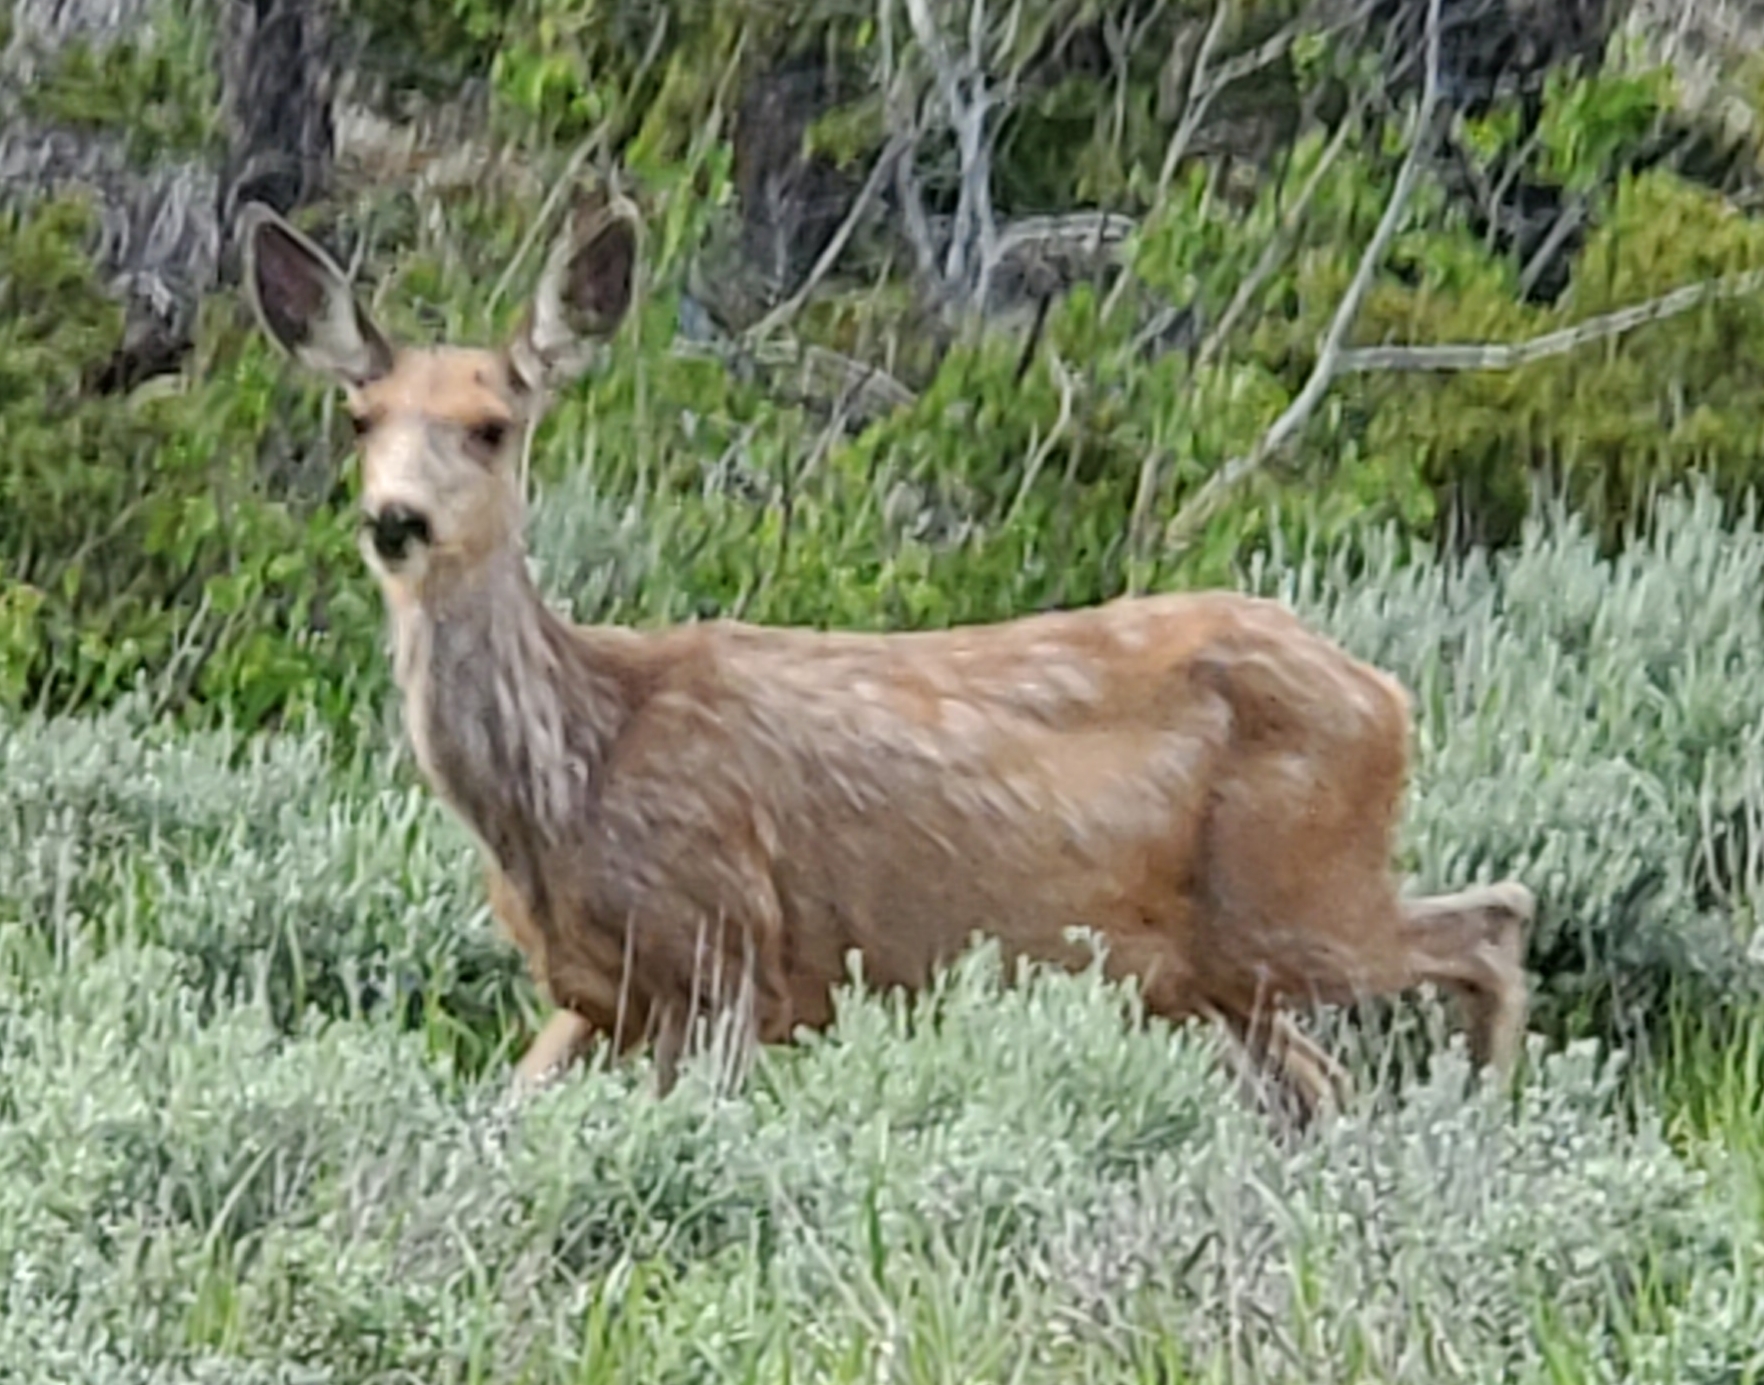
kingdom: Animalia
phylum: Chordata
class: Mammalia
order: Artiodactyla
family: Cervidae
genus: Odocoileus
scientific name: Odocoileus hemionus
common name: Mule deer
